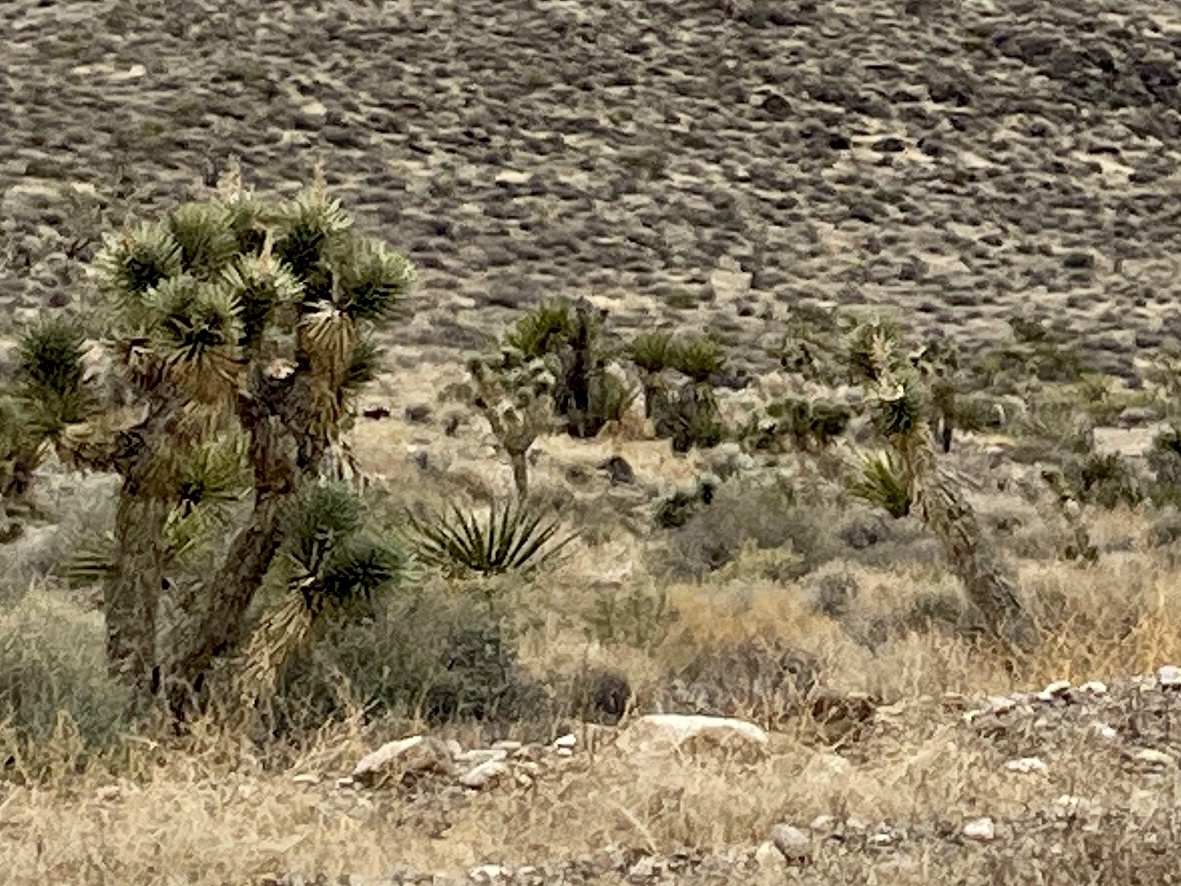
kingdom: Plantae
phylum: Tracheophyta
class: Liliopsida
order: Asparagales
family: Asparagaceae
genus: Yucca
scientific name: Yucca brevifolia
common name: Joshua tree
